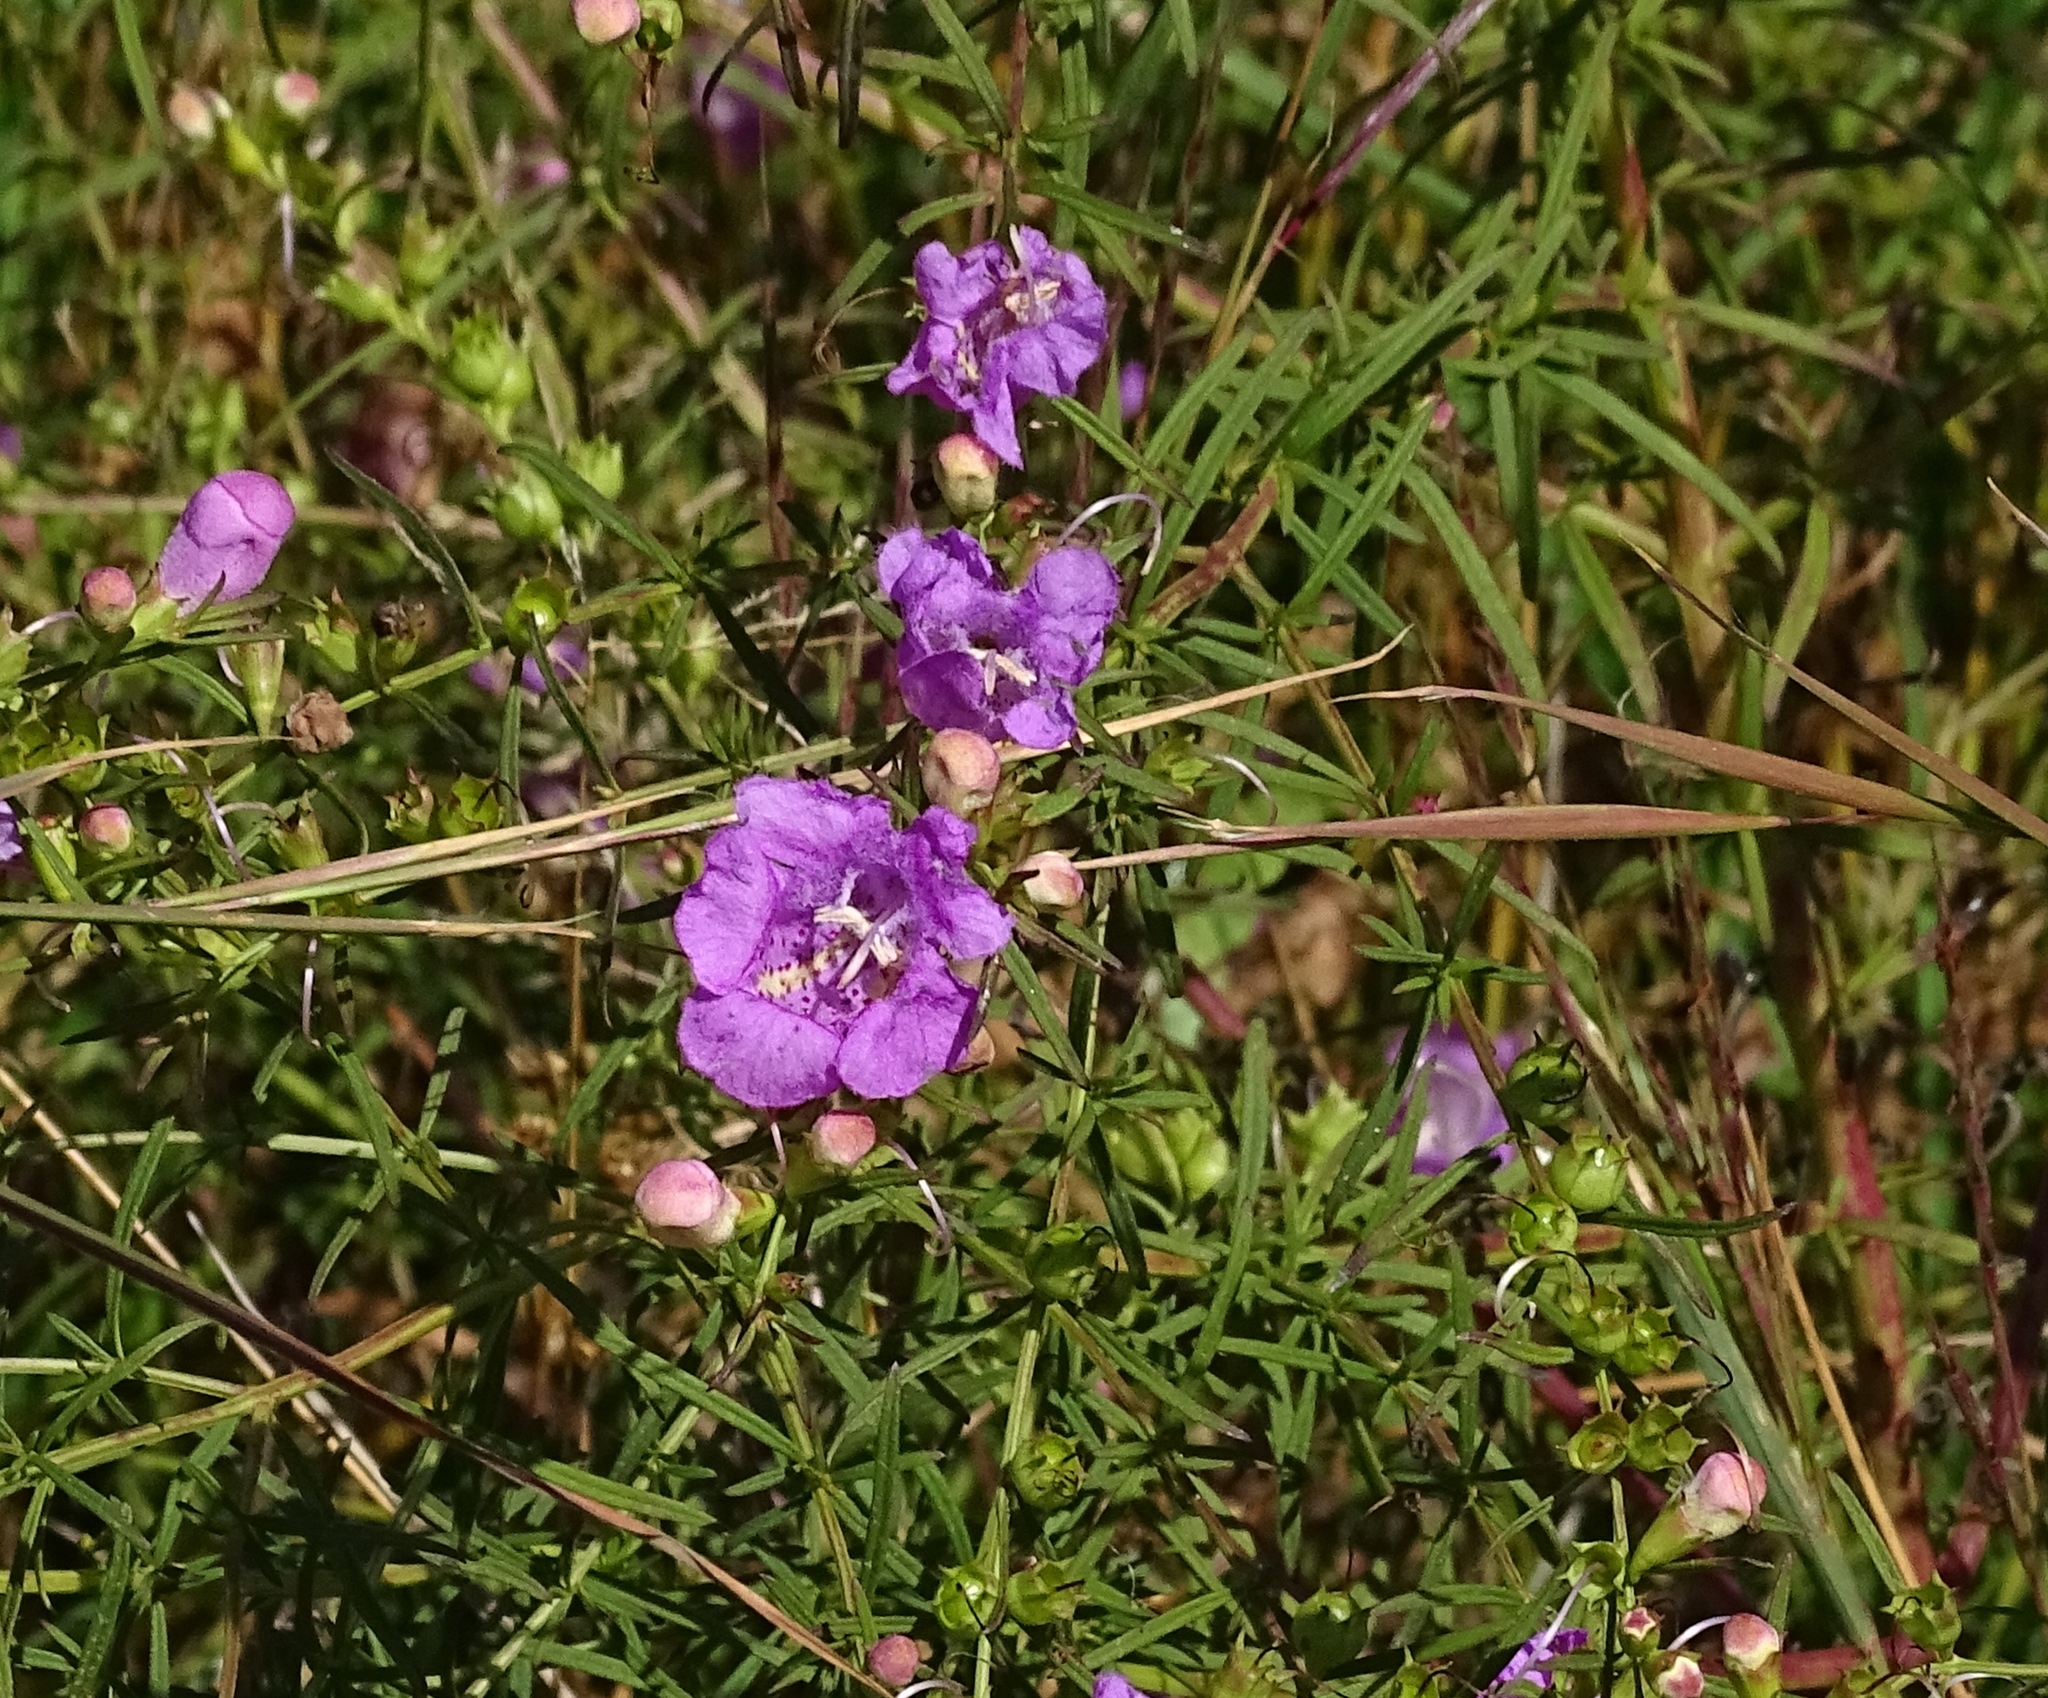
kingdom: Plantae
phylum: Tracheophyta
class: Magnoliopsida
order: Lamiales
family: Orobanchaceae
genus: Agalinis
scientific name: Agalinis purpurea
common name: Purple false foxglove
